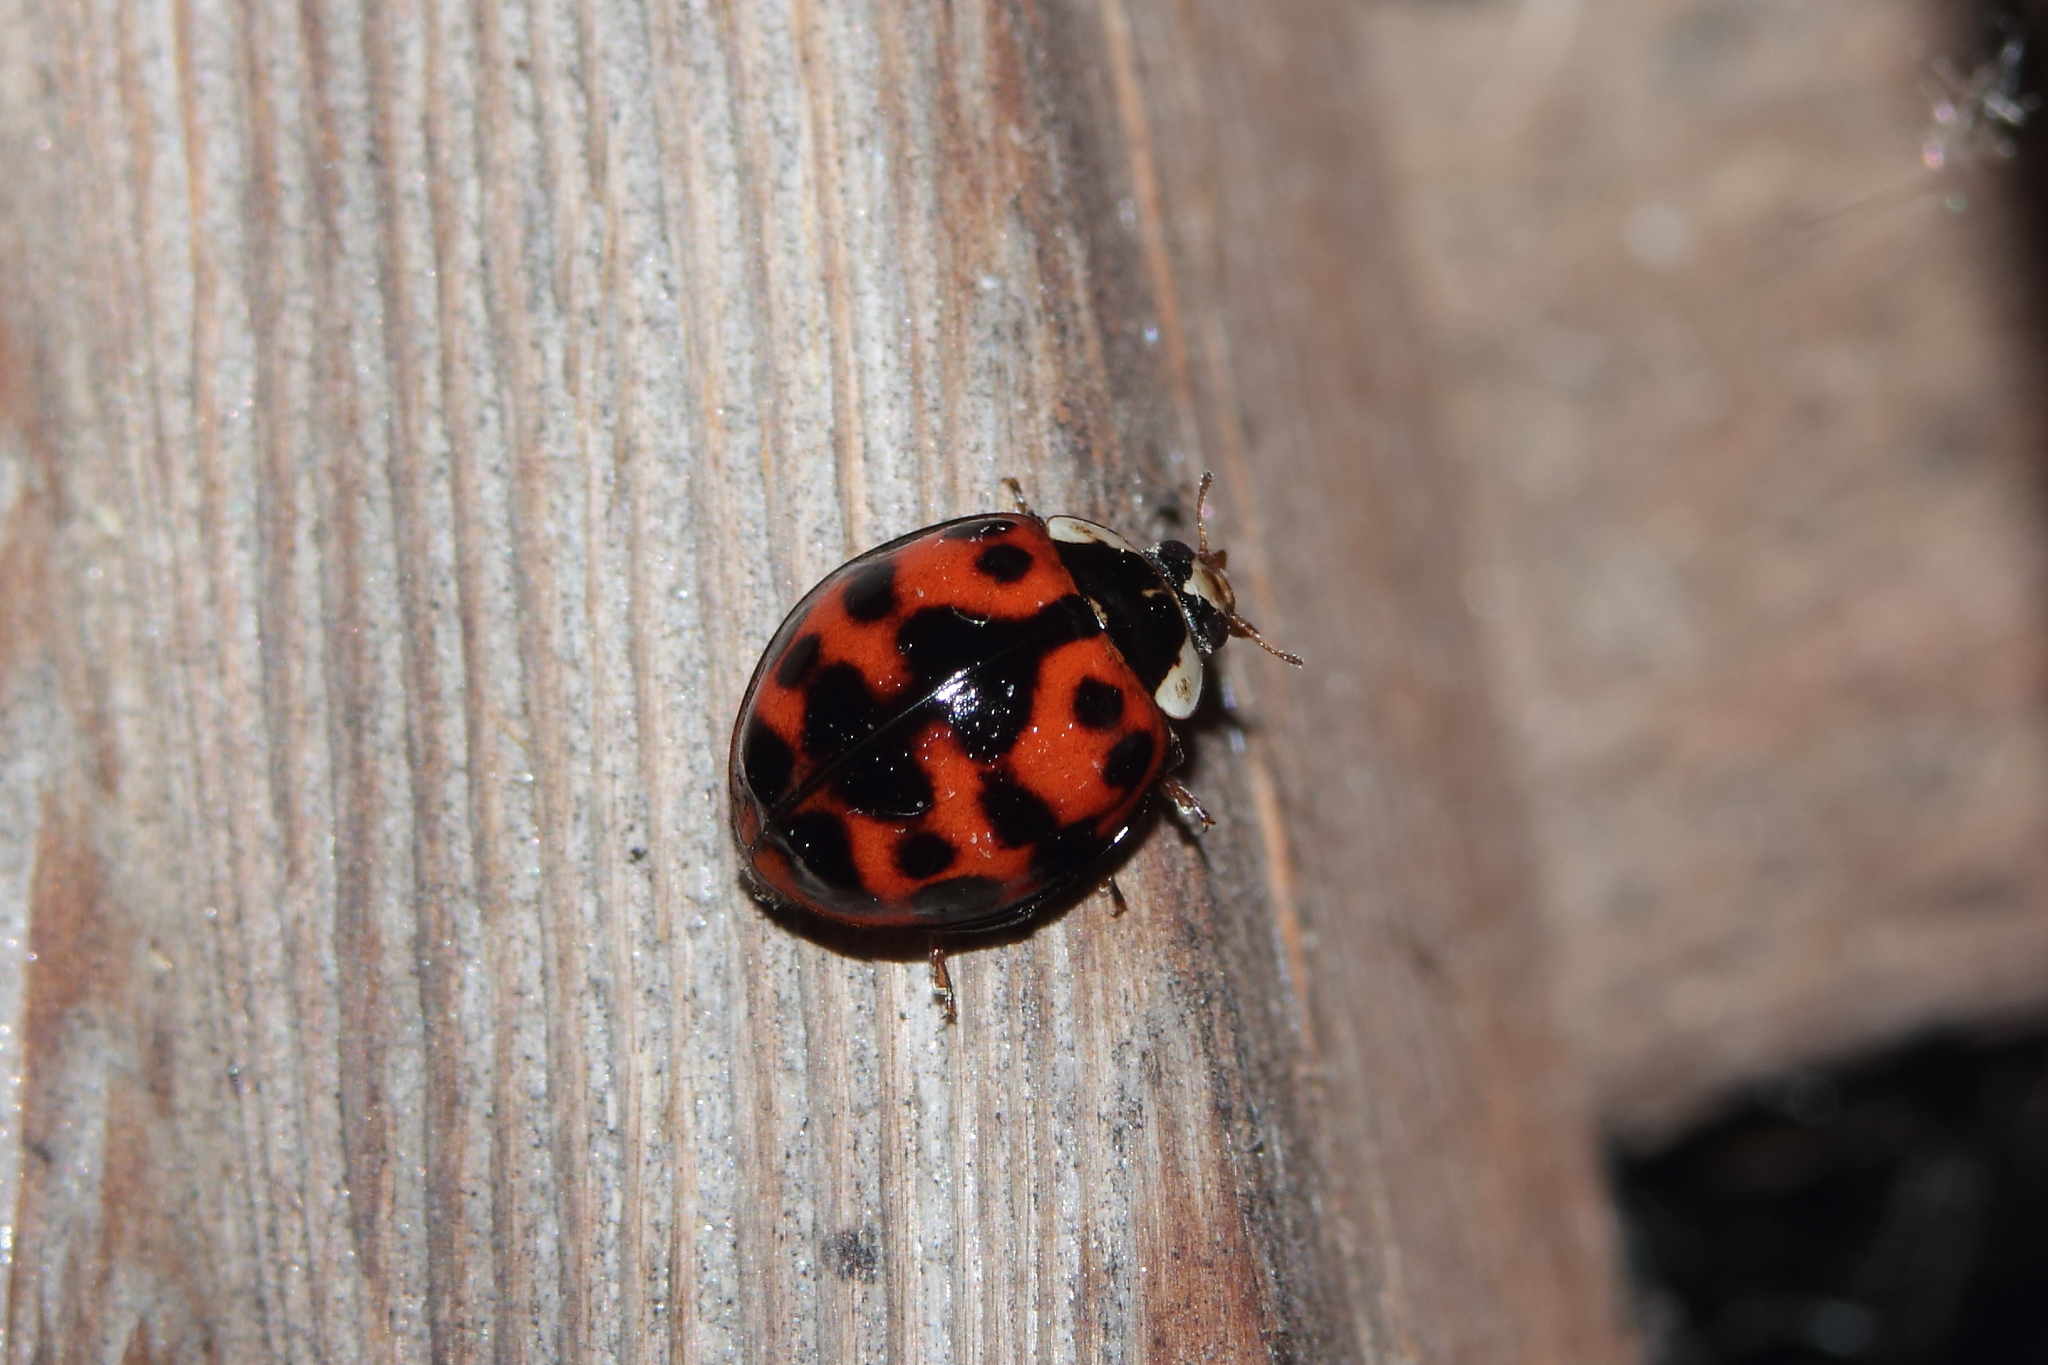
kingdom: Animalia
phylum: Arthropoda
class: Insecta
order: Coleoptera
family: Coccinellidae
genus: Harmonia
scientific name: Harmonia axyridis
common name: Harlequin ladybird
